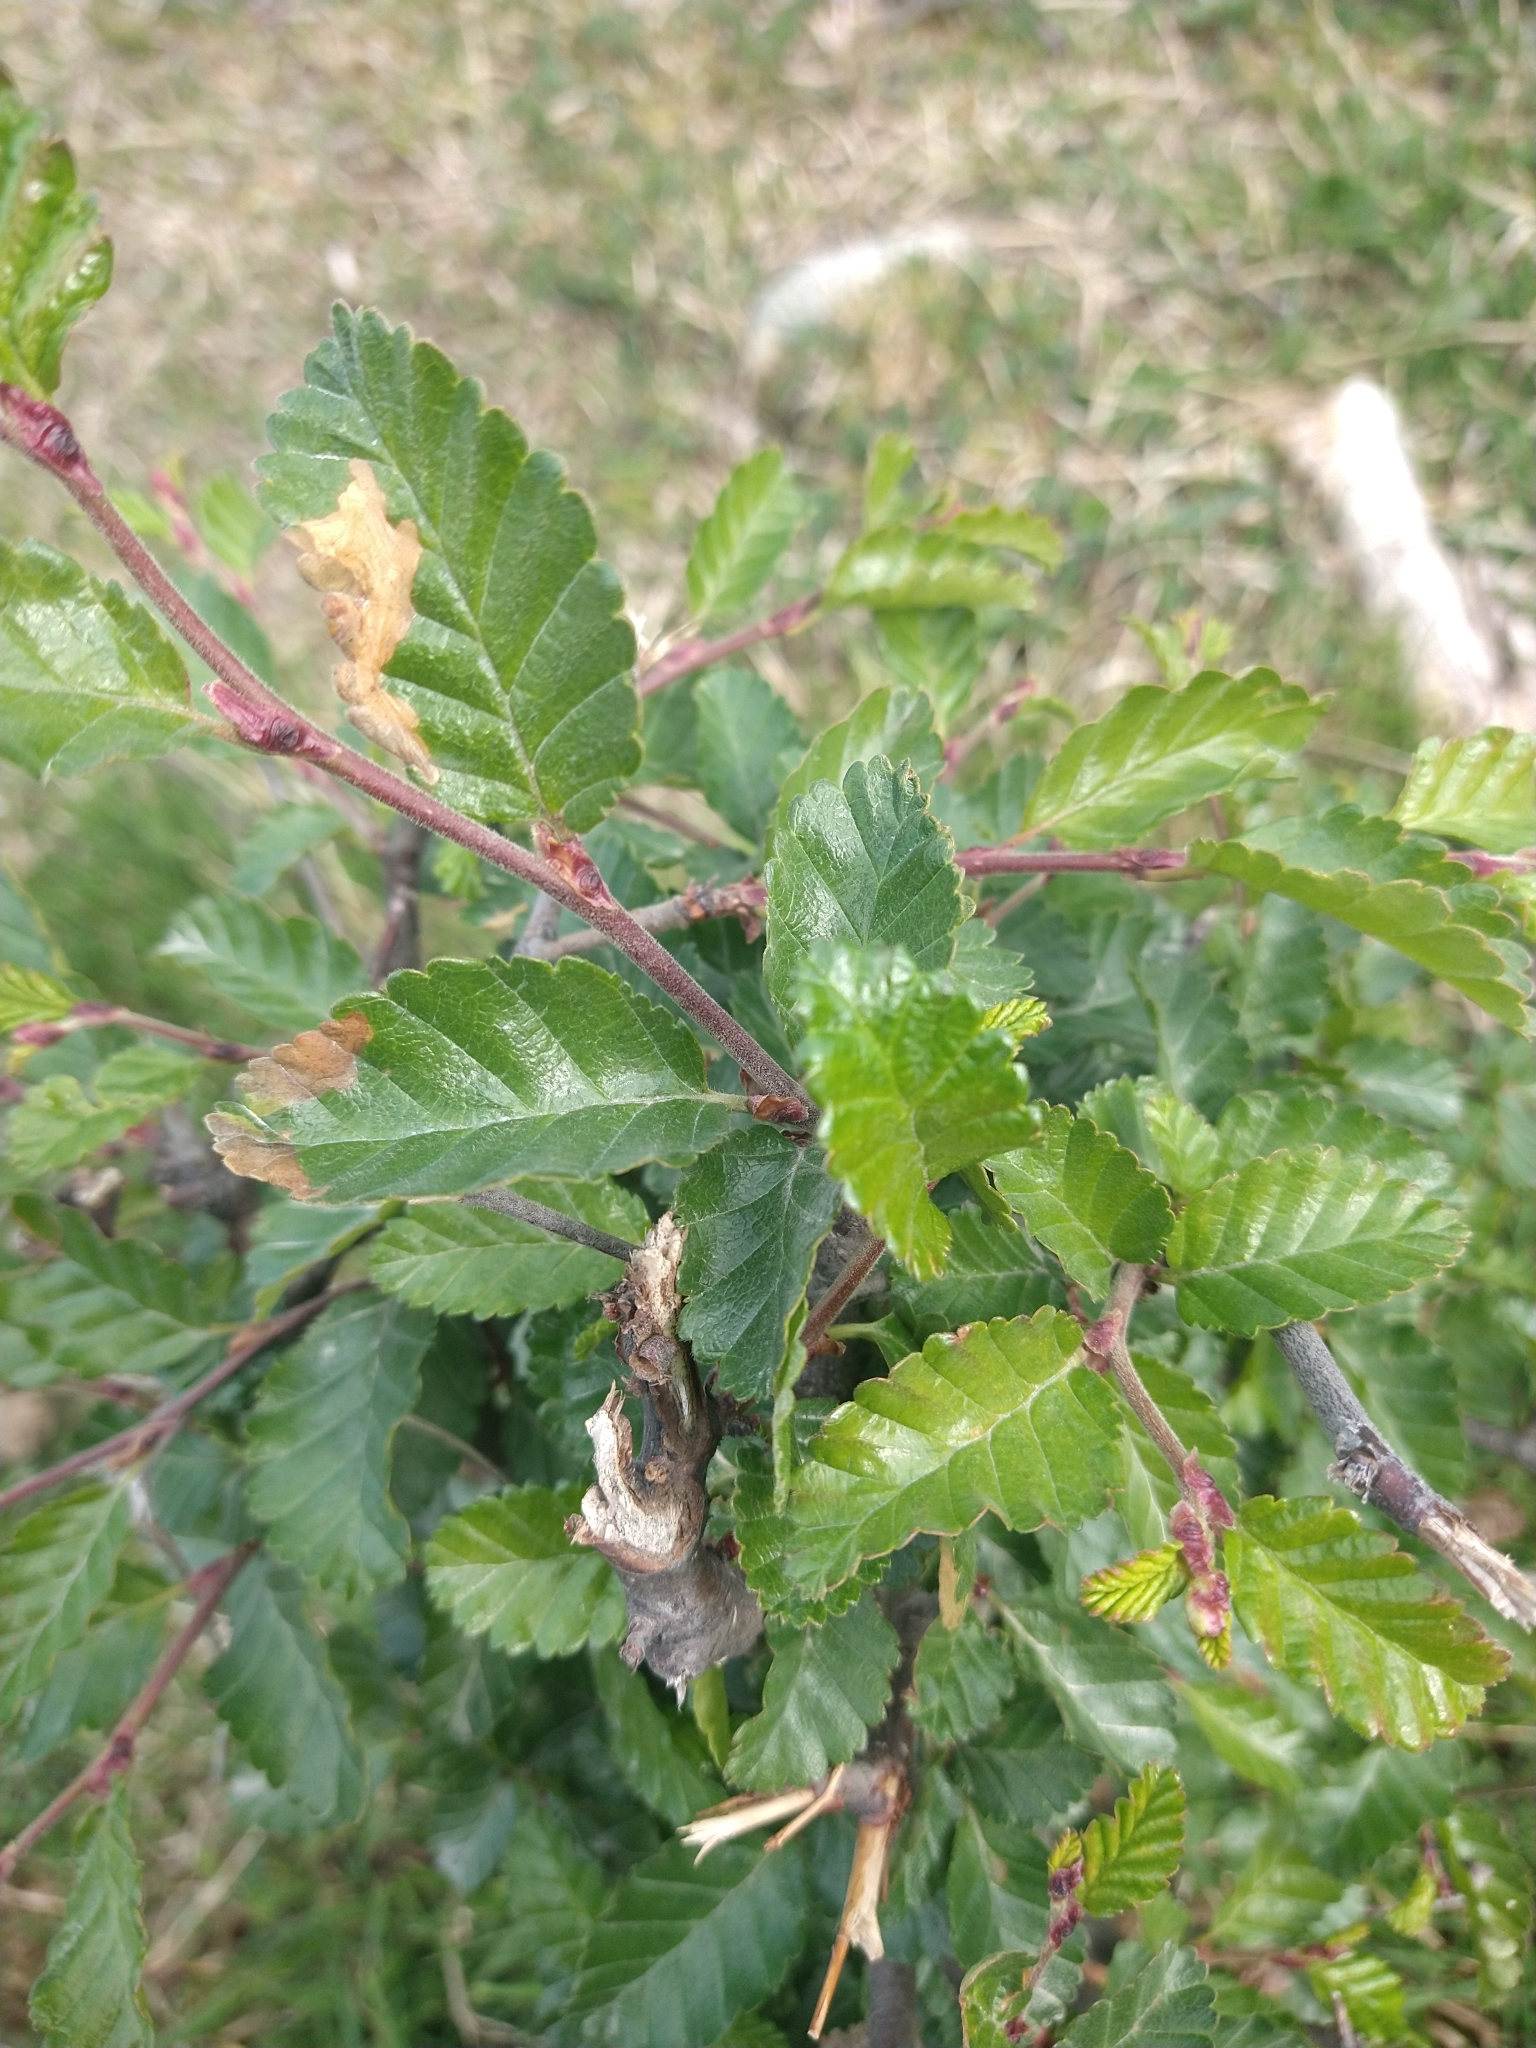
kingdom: Plantae
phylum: Tracheophyta
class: Magnoliopsida
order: Fagales
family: Nothofagaceae
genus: Nothofagus
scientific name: Nothofagus pumilio
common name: Lenga beech
